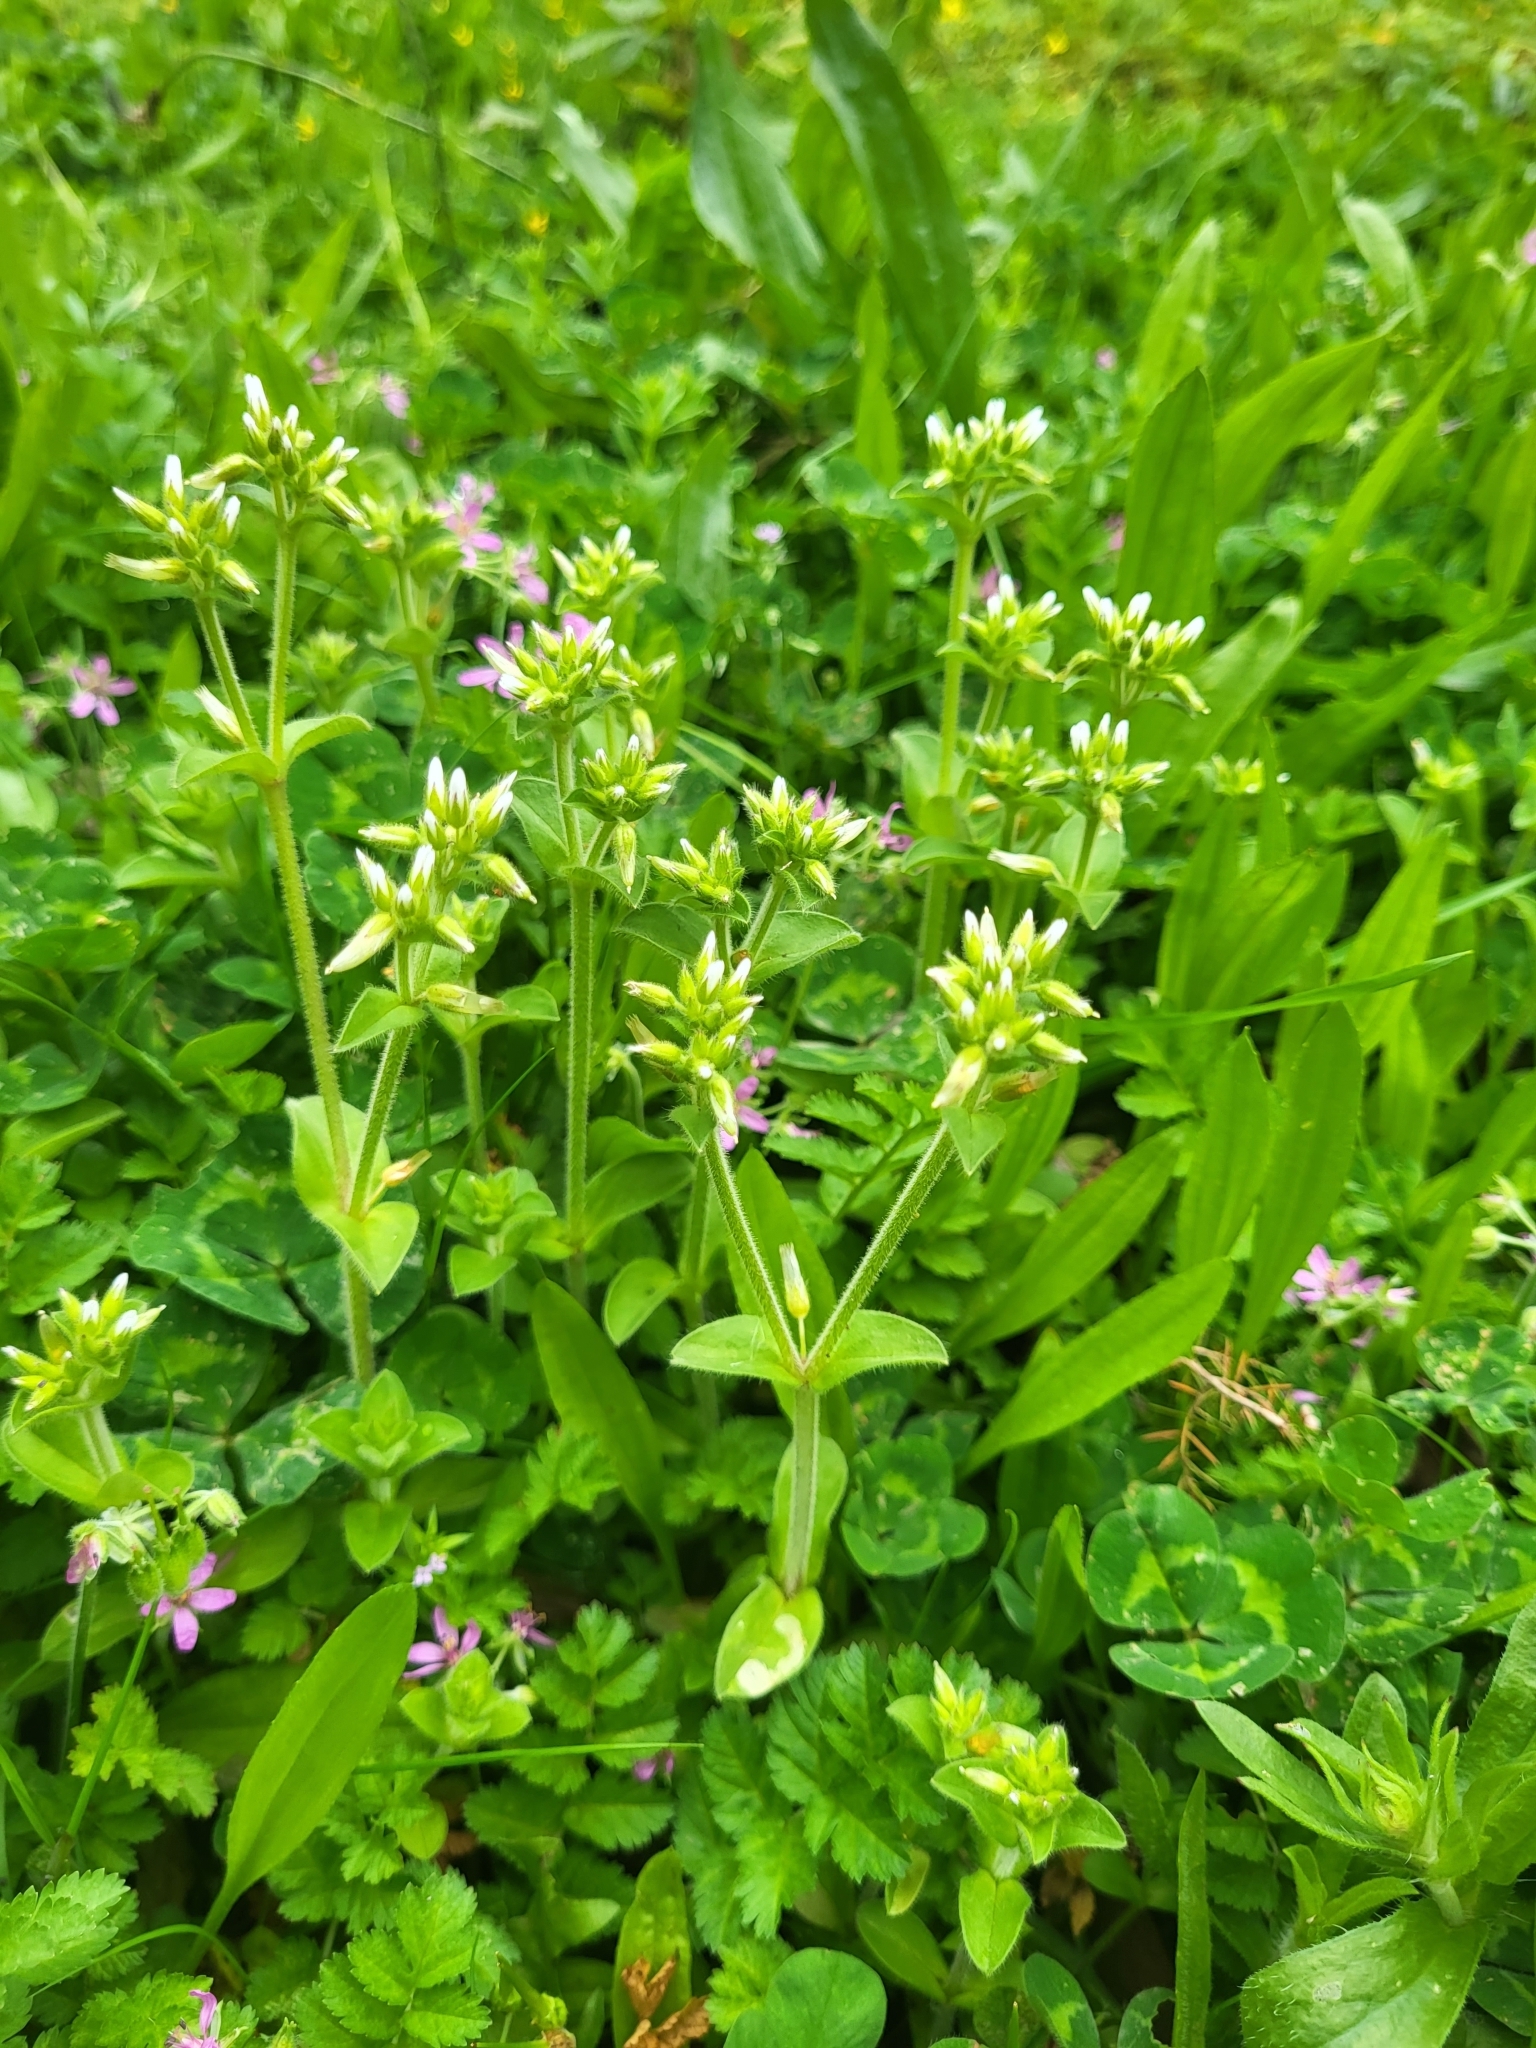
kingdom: Plantae
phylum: Tracheophyta
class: Magnoliopsida
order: Caryophyllales
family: Caryophyllaceae
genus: Cerastium
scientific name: Cerastium glomeratum
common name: Sticky chickweed
